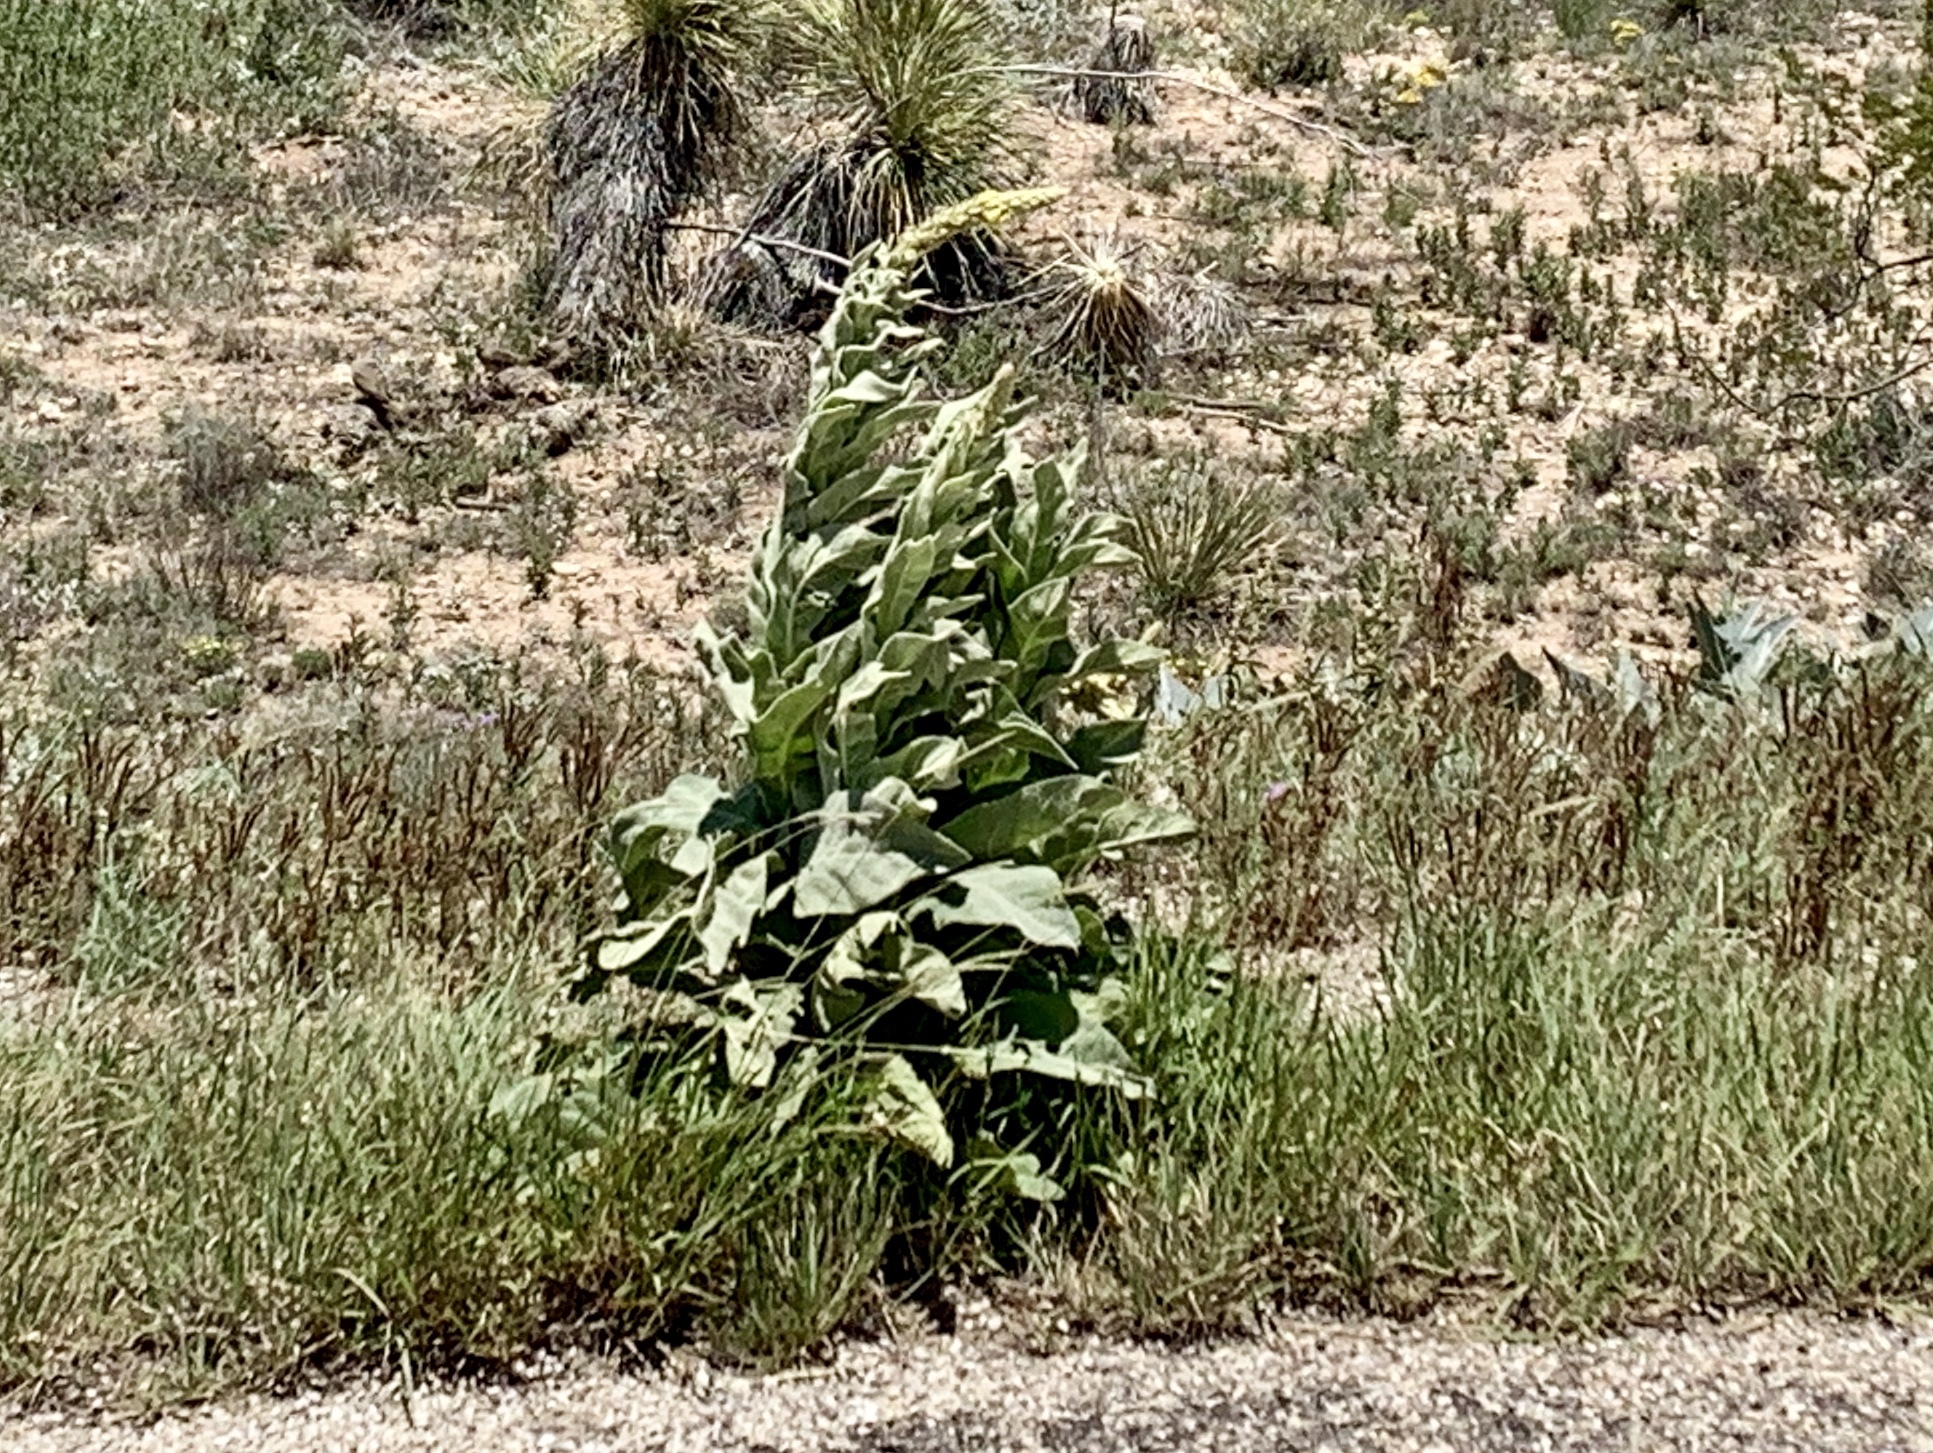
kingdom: Plantae
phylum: Tracheophyta
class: Magnoliopsida
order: Lamiales
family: Scrophulariaceae
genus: Verbascum
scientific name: Verbascum thapsus
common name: Common mullein
